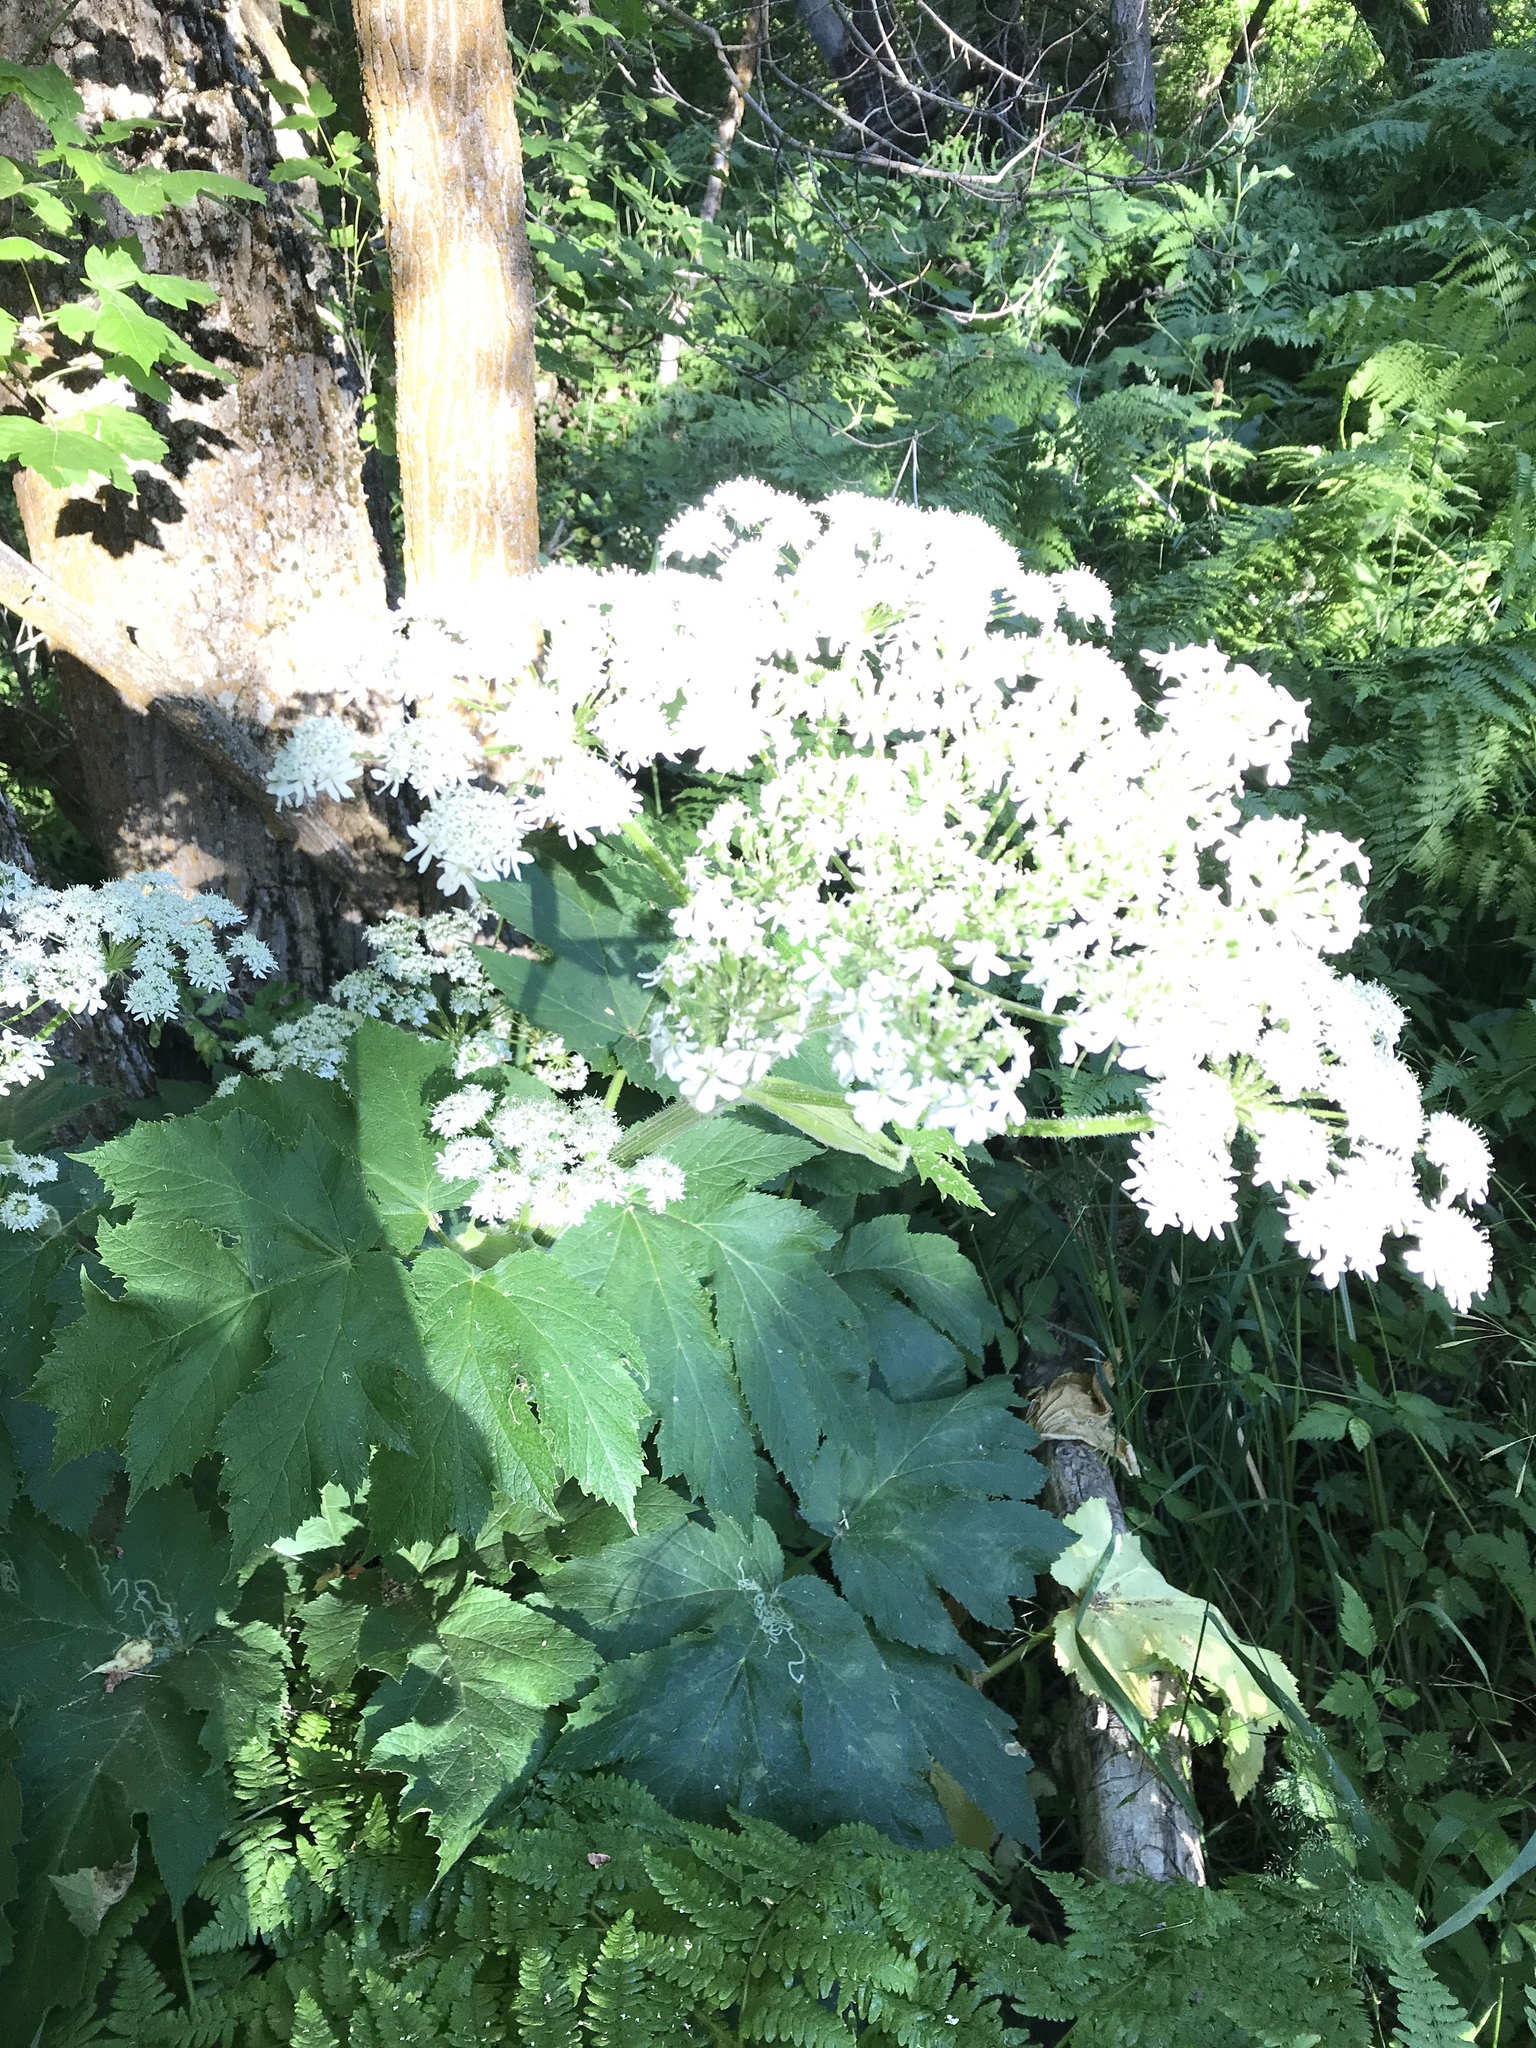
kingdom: Plantae
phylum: Tracheophyta
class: Magnoliopsida
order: Apiales
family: Apiaceae
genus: Heracleum
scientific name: Heracleum maximum
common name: American cow parsnip
